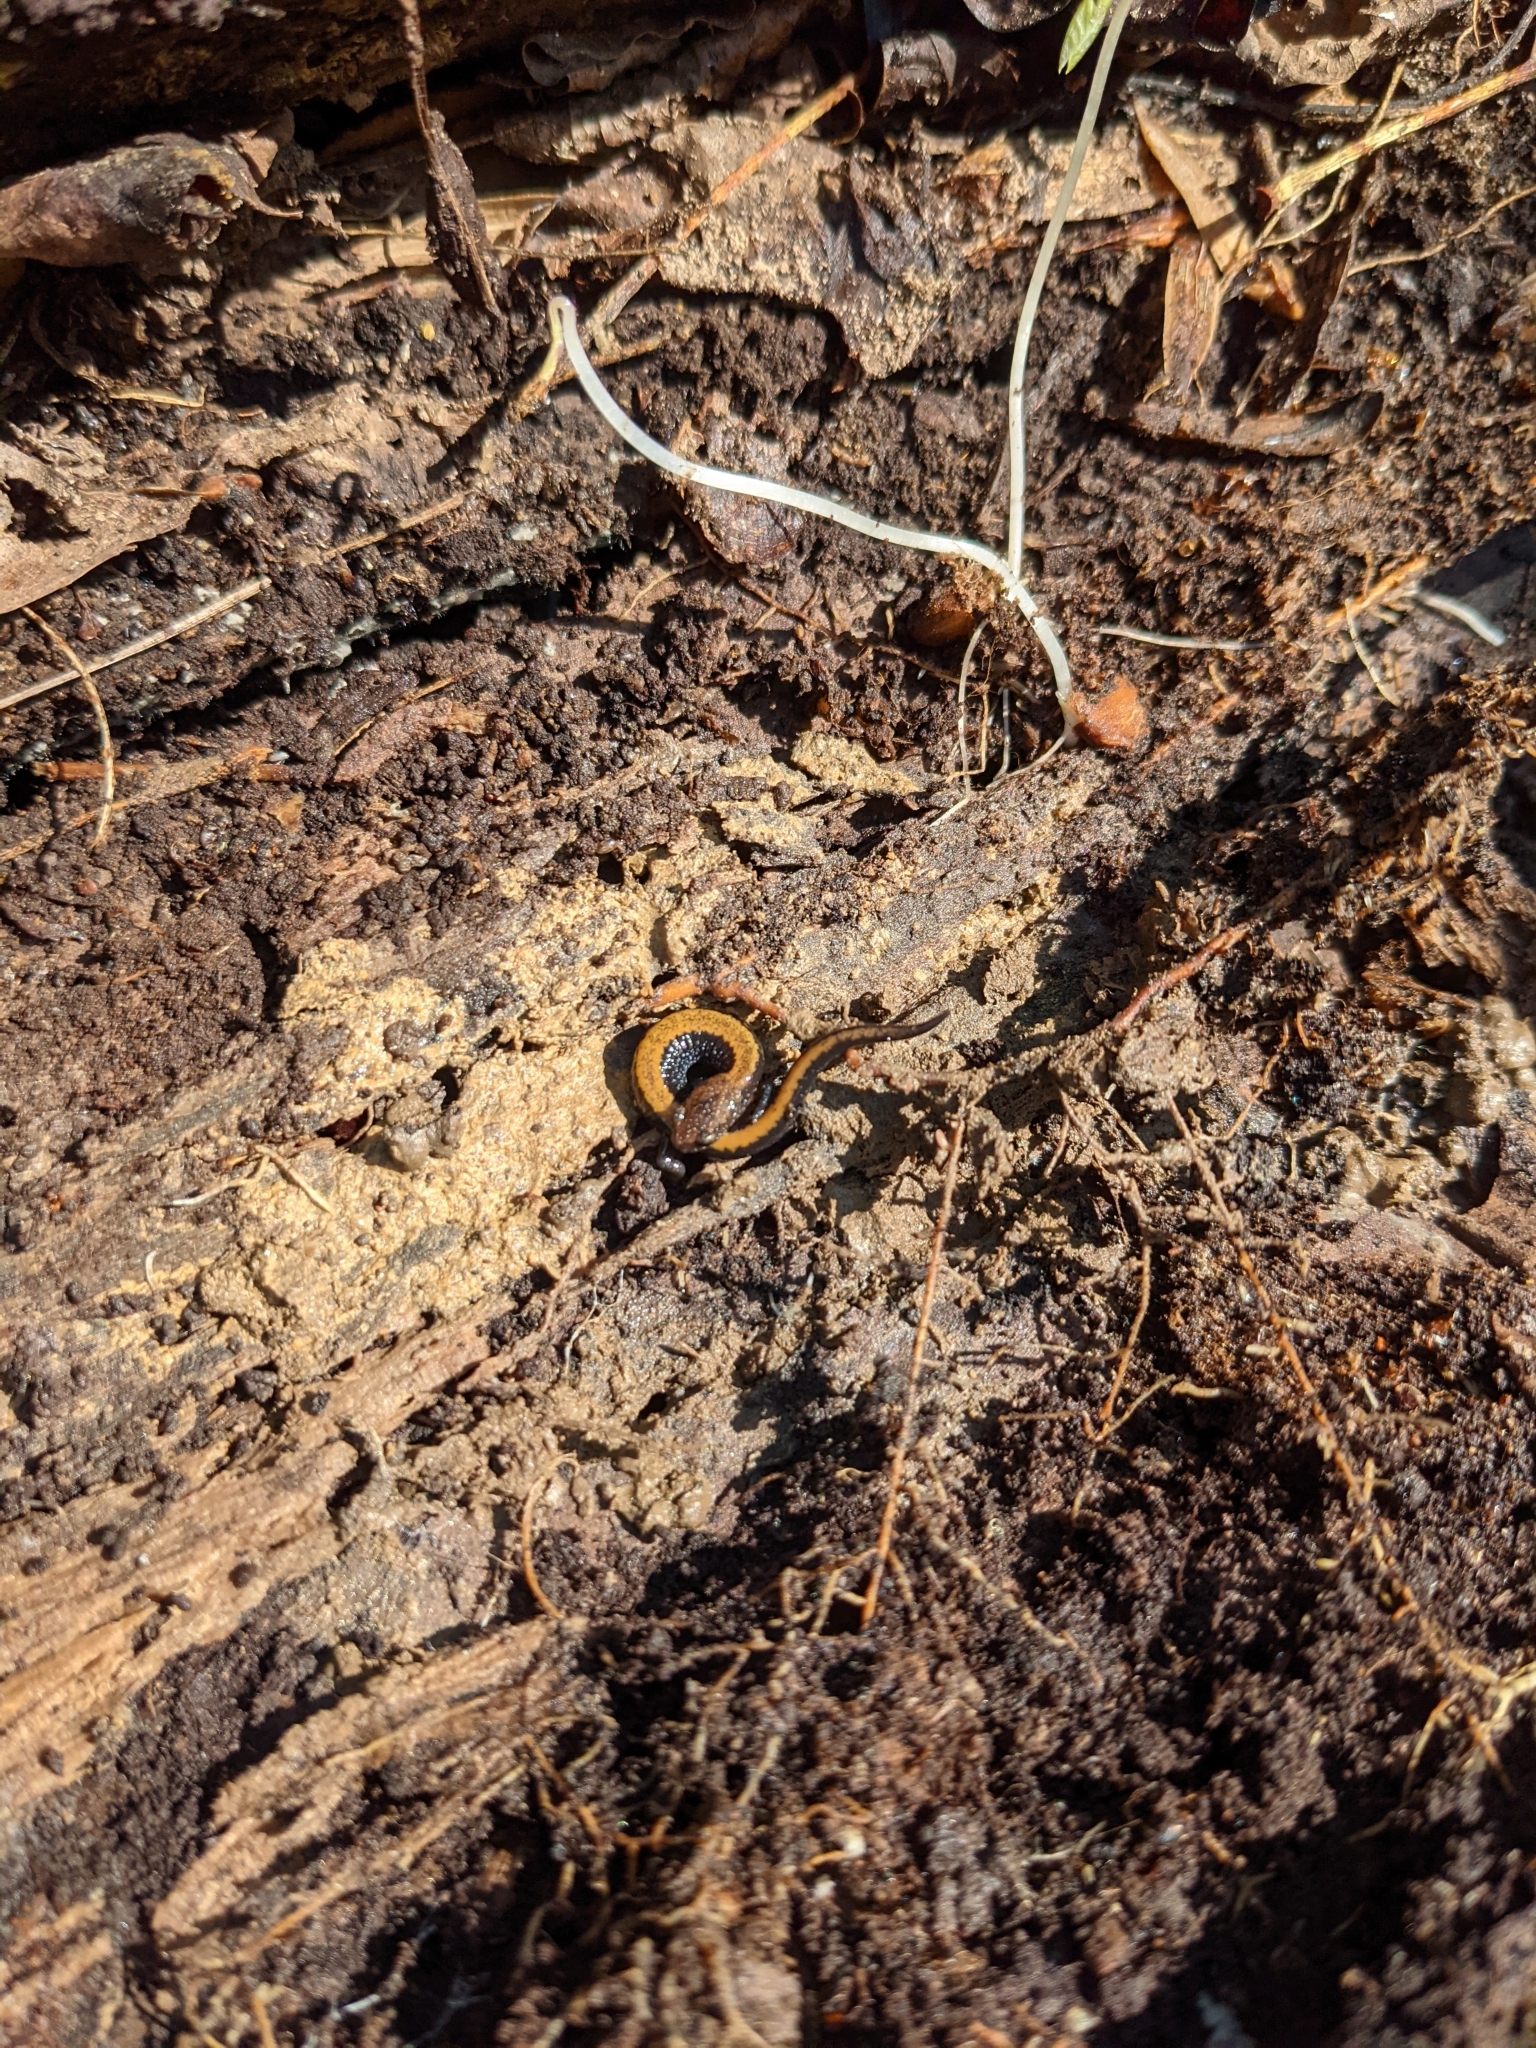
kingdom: Animalia
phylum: Chordata
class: Amphibia
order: Caudata
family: Plethodontidae
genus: Plethodon
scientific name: Plethodon cinereus
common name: Redback salamander
